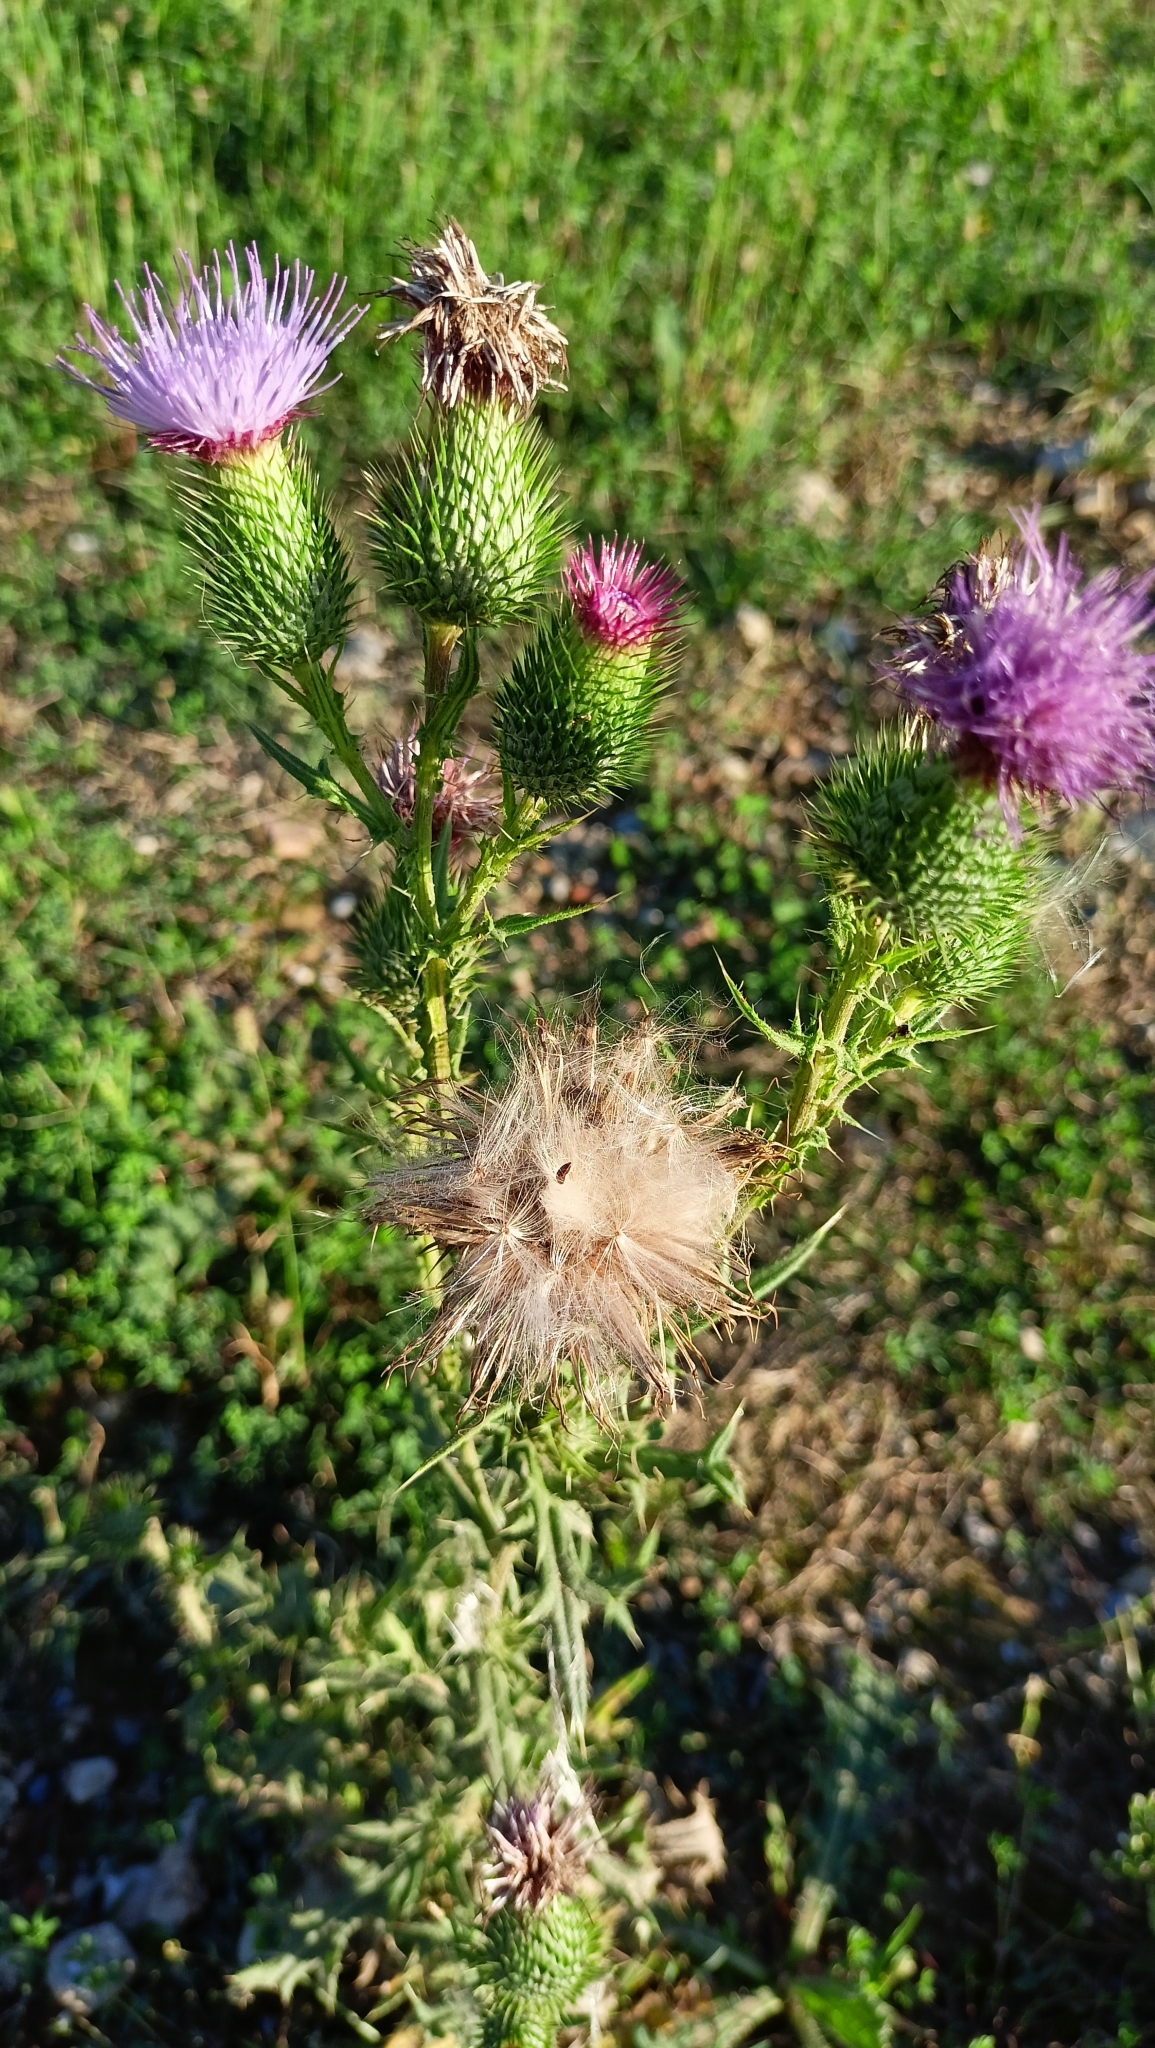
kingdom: Plantae
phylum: Tracheophyta
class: Magnoliopsida
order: Asterales
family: Asteraceae
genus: Cirsium
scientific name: Cirsium vulgare
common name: Bull thistle
